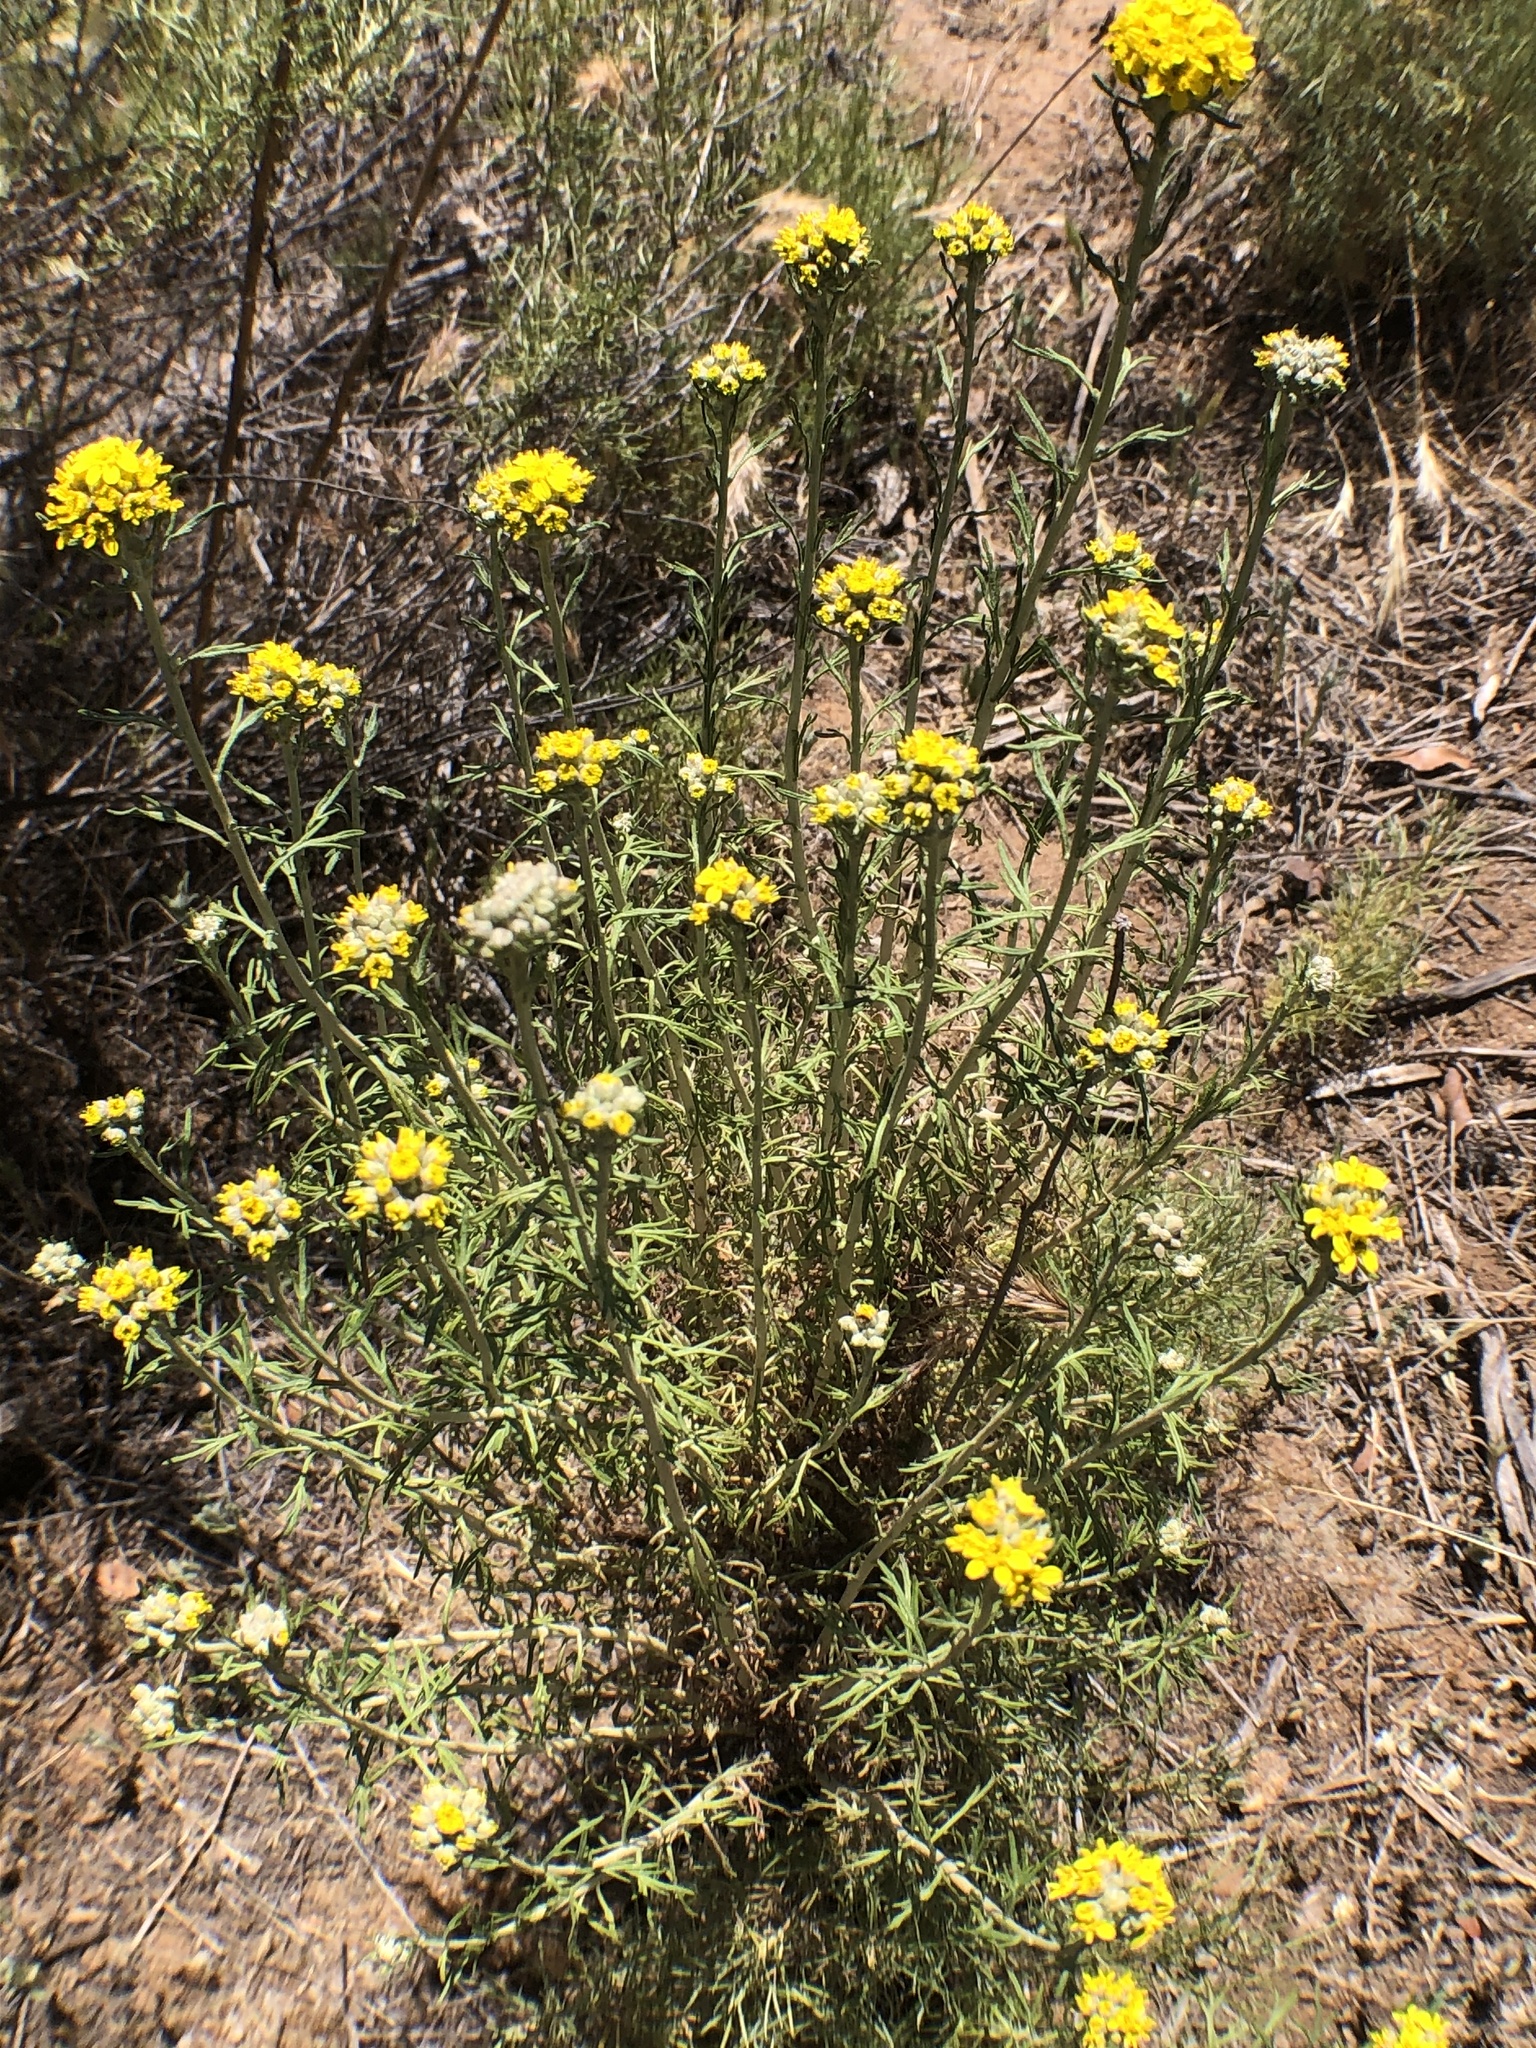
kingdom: Plantae
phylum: Tracheophyta
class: Magnoliopsida
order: Asterales
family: Asteraceae
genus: Eriophyllum
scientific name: Eriophyllum confertiflorum
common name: Golden-yarrow
